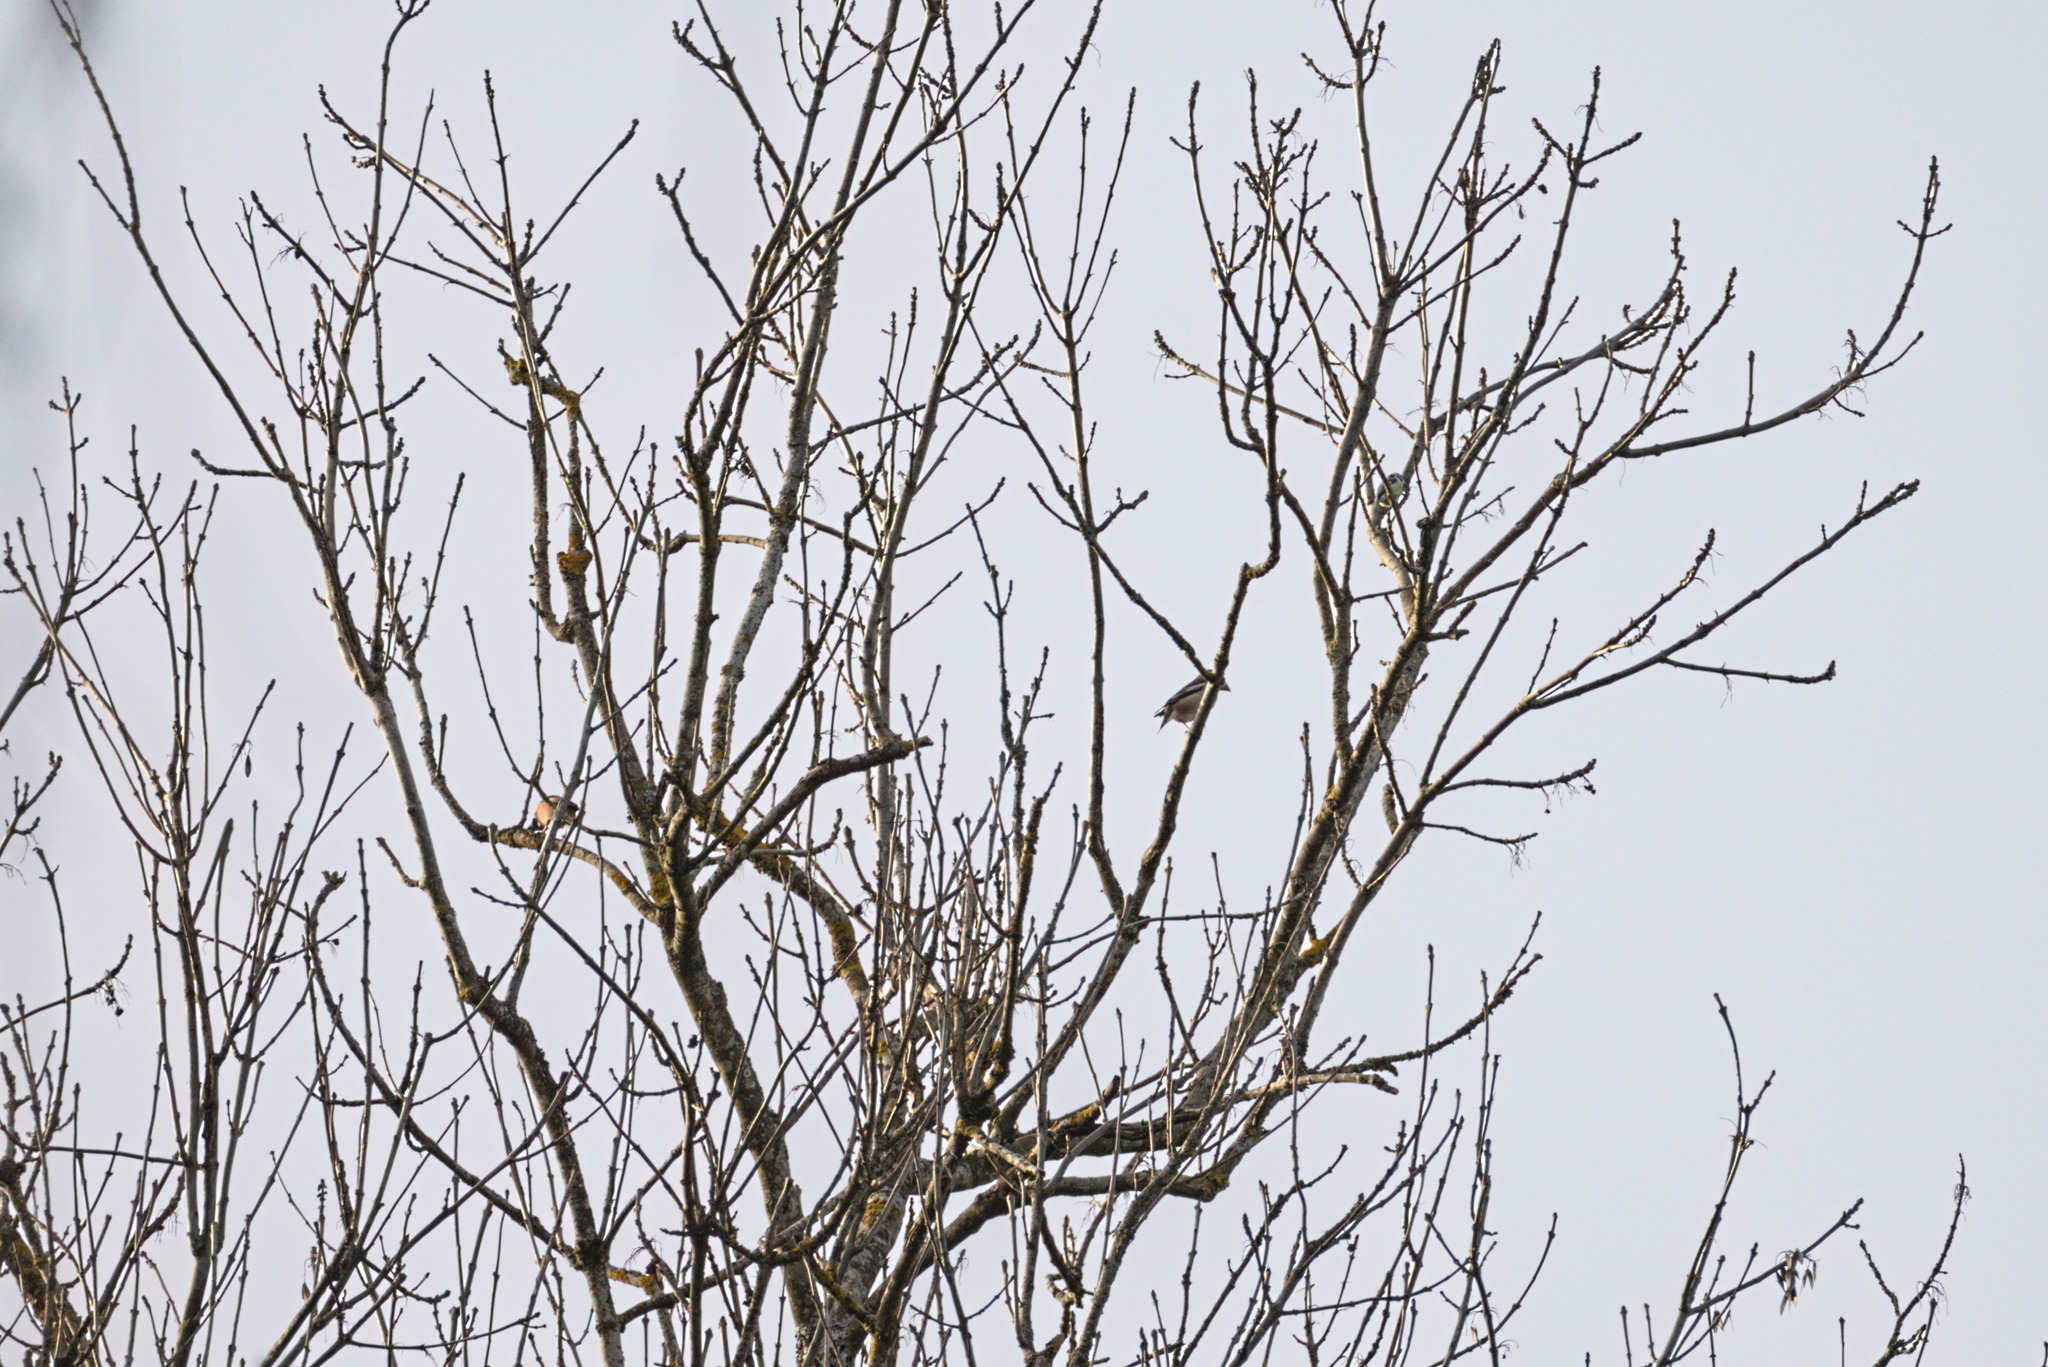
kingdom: Animalia
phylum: Chordata
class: Aves
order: Passeriformes
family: Fringillidae
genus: Coccothraustes
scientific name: Coccothraustes coccothraustes
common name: Hawfinch
